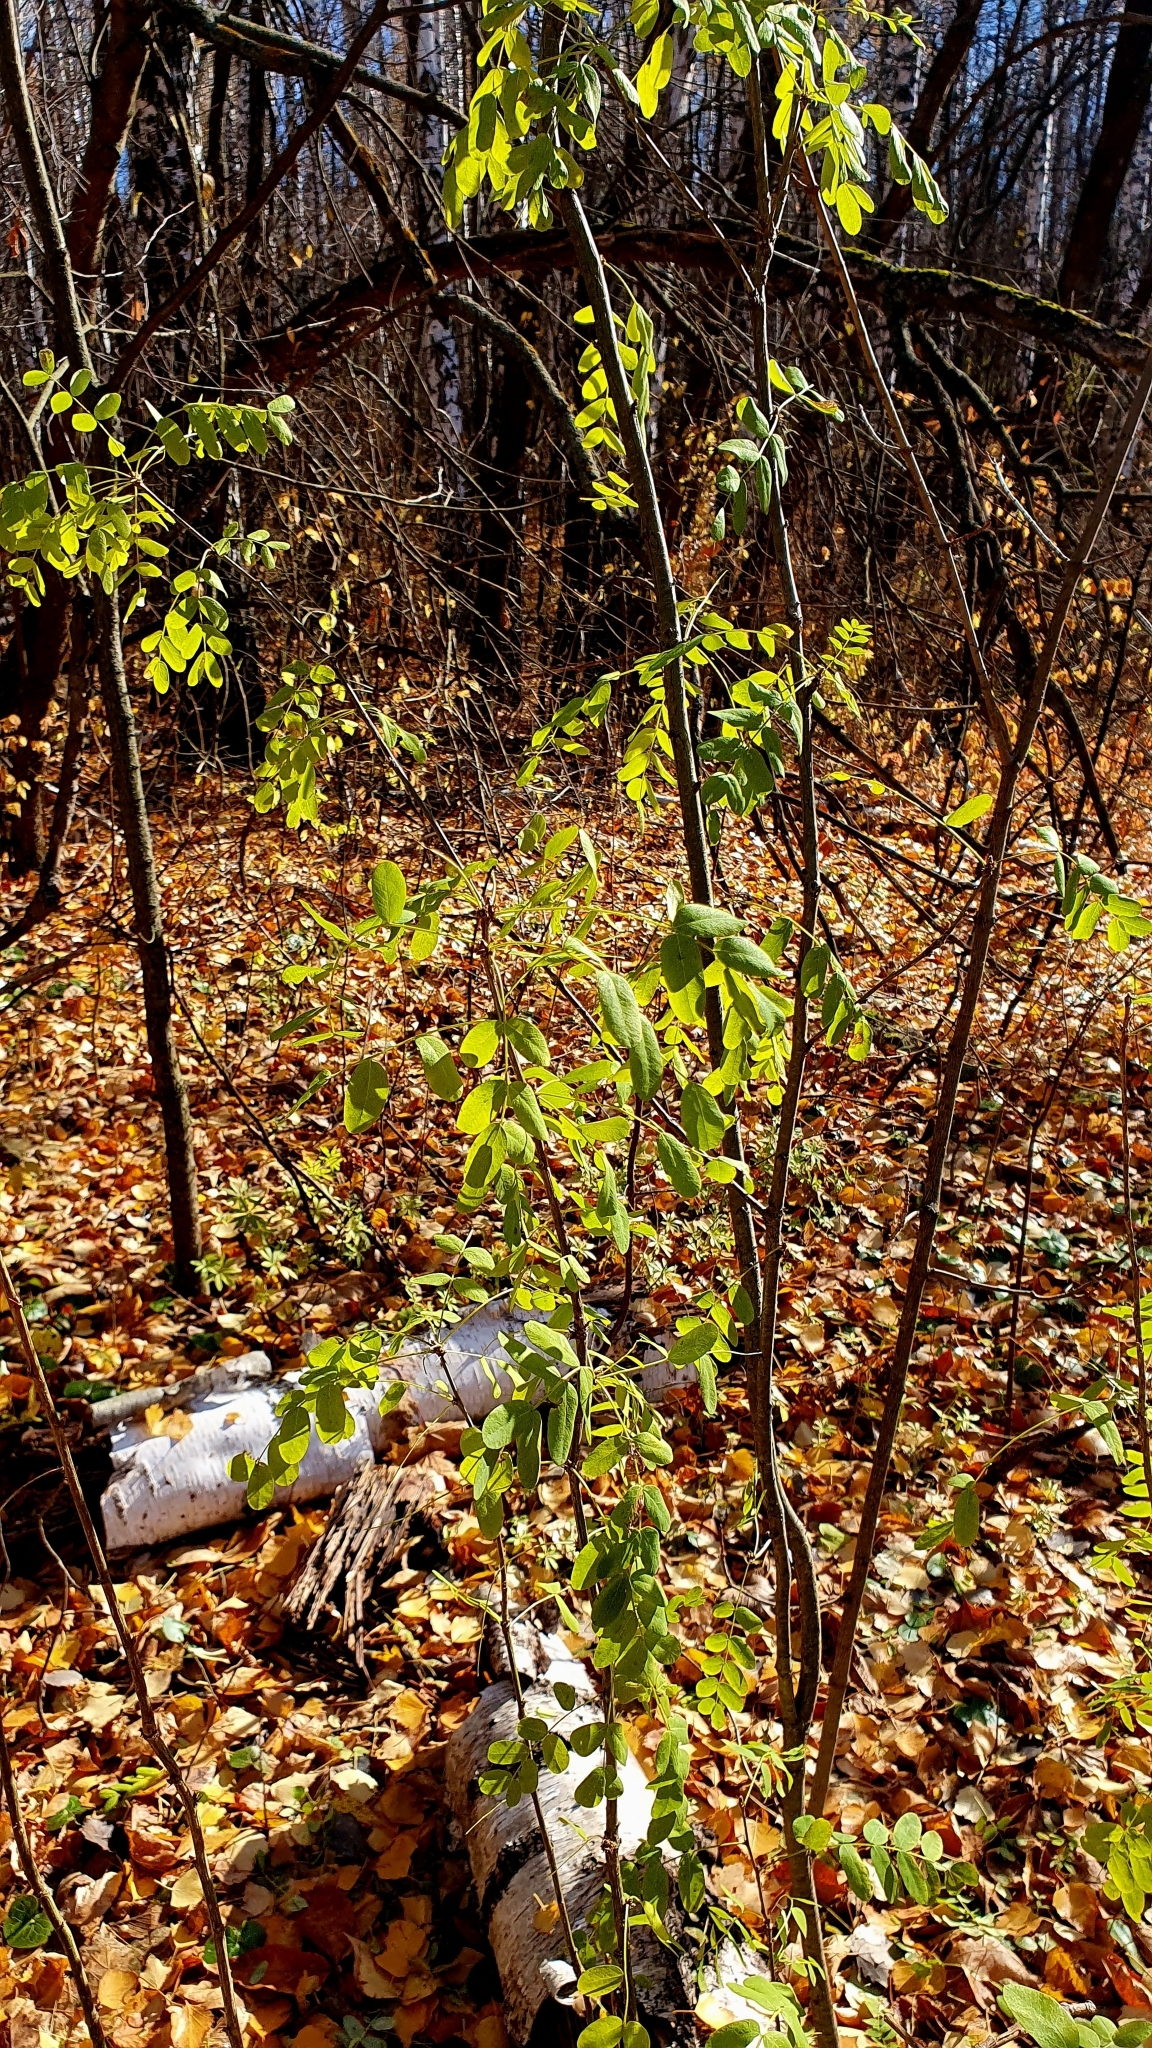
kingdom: Plantae
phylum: Tracheophyta
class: Magnoliopsida
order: Fabales
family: Fabaceae
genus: Caragana
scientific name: Caragana arborescens
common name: Siberian peashrub
